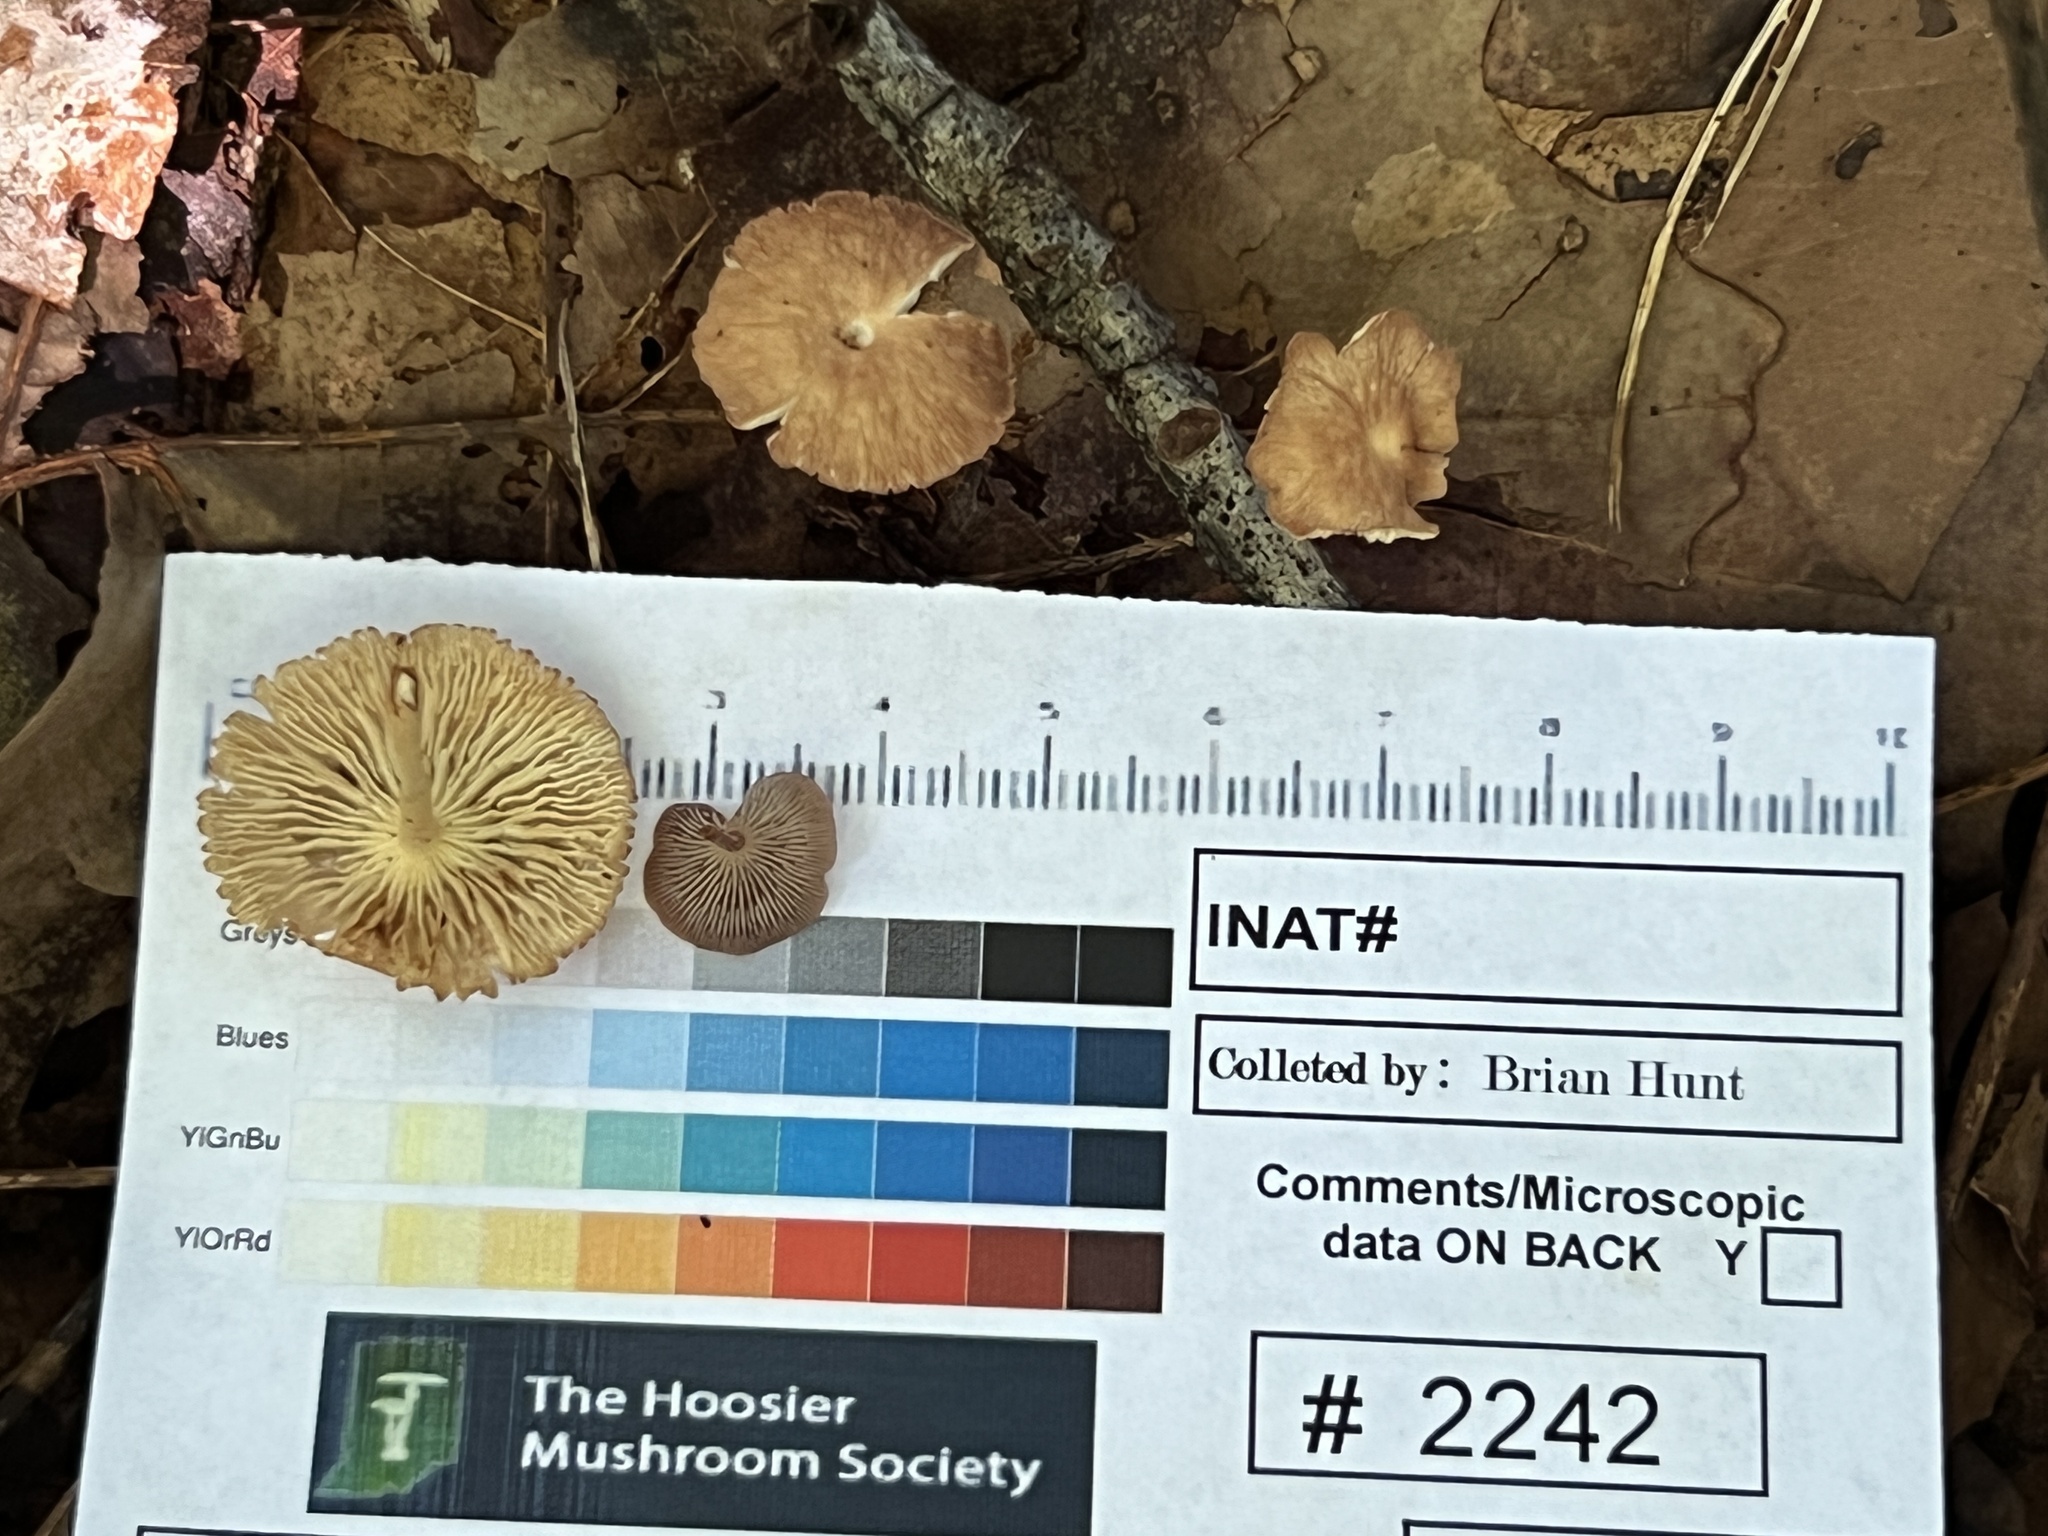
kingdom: Fungi
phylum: Basidiomycota
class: Agaricomycetes
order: Agaricales
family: Omphalotaceae
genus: Collybiopsis
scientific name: Collybiopsis biformis
